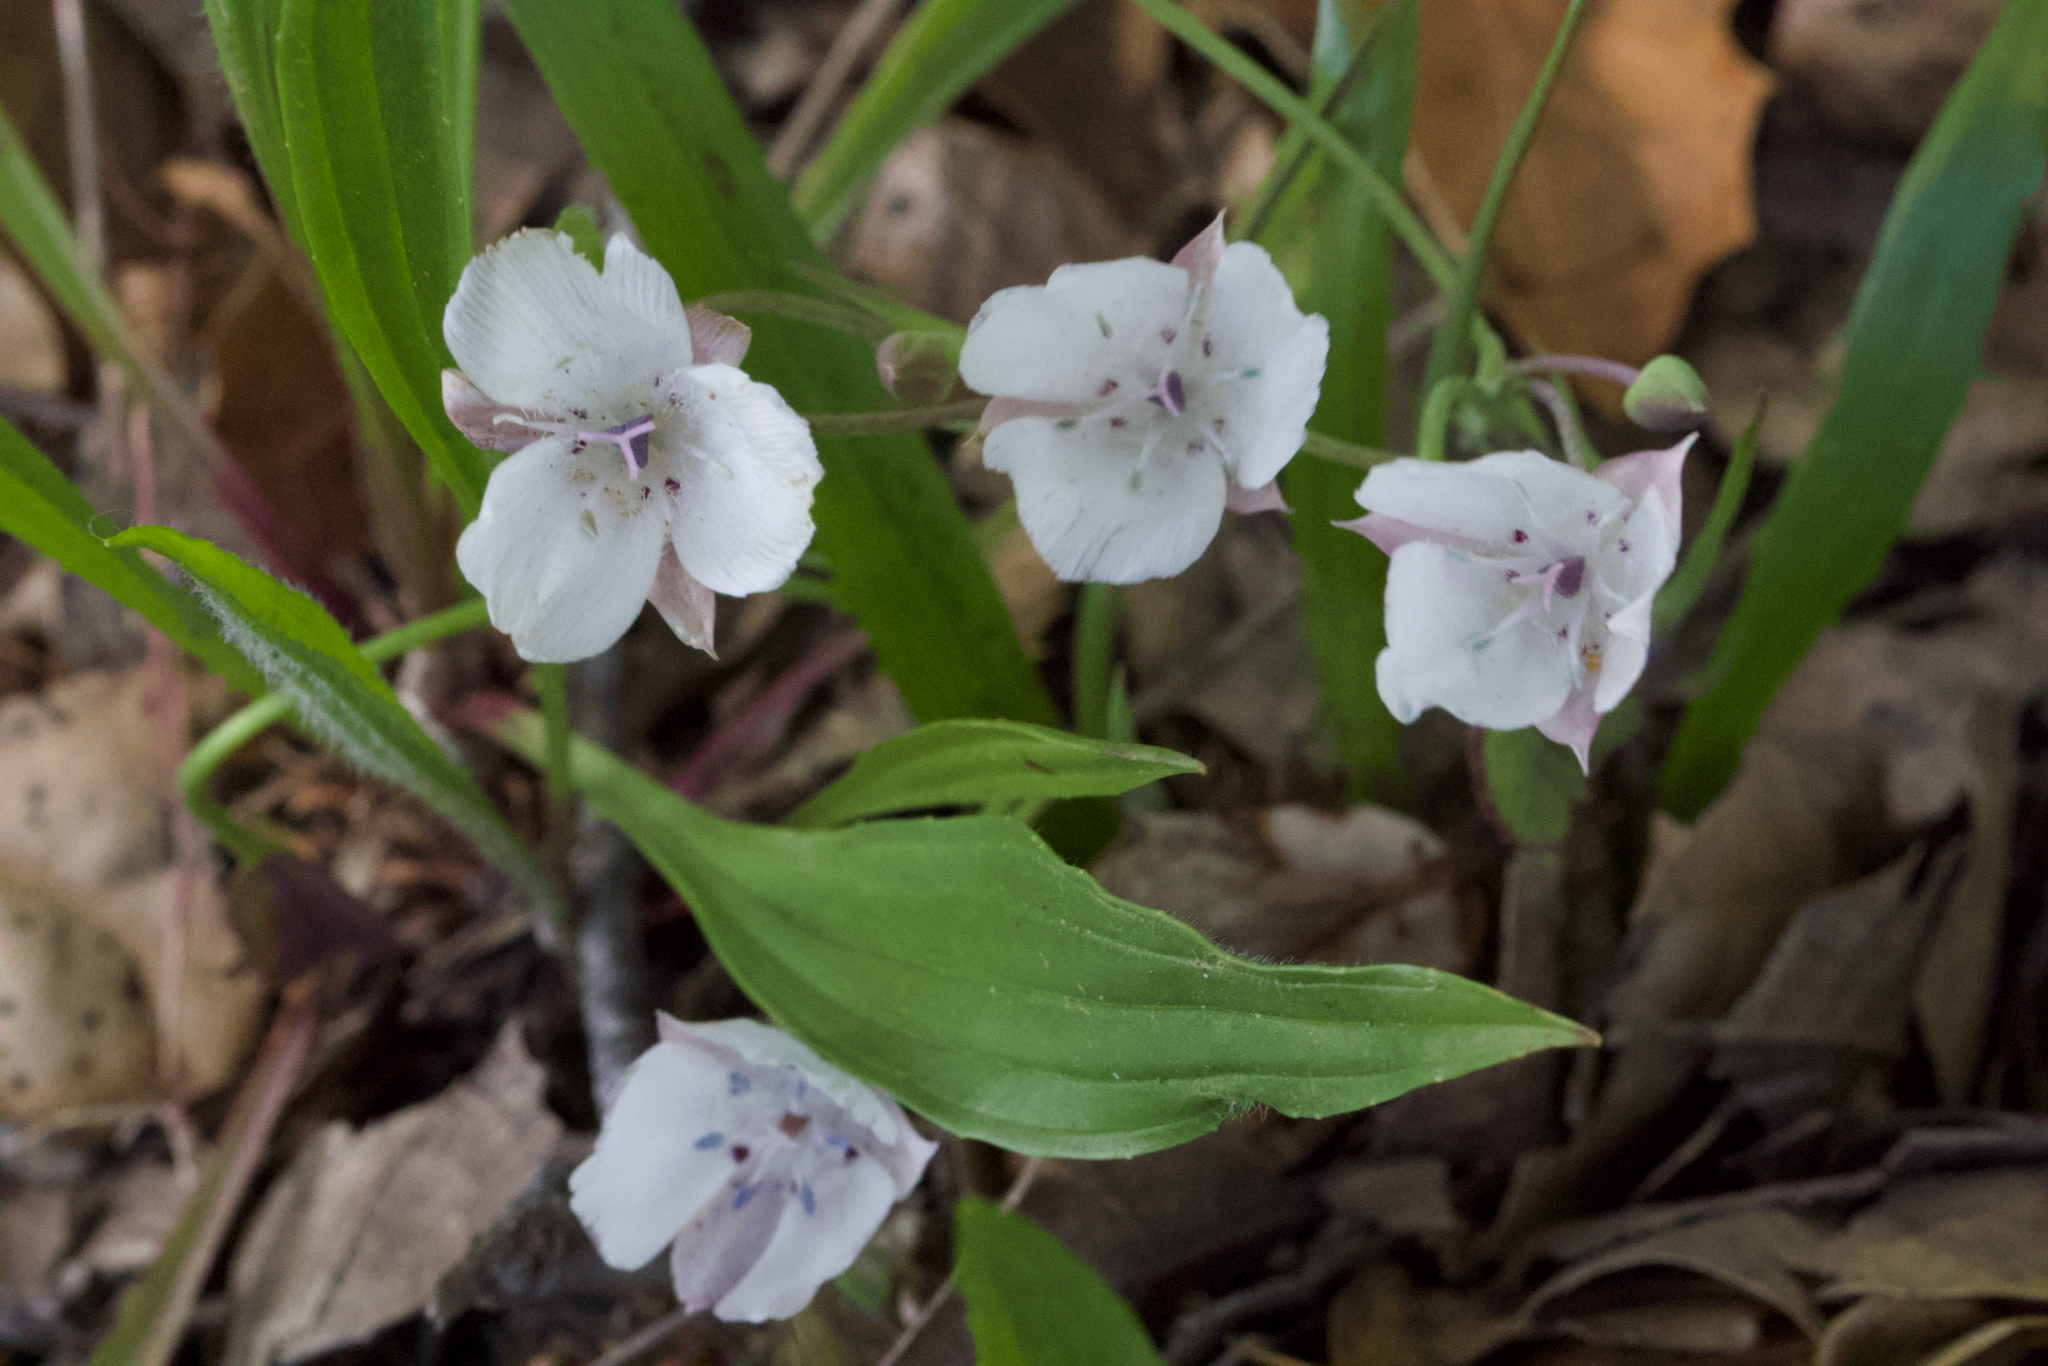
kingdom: Plantae
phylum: Tracheophyta
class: Liliopsida
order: Liliales
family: Liliaceae
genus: Calochortus
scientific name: Calochortus umbellatus
